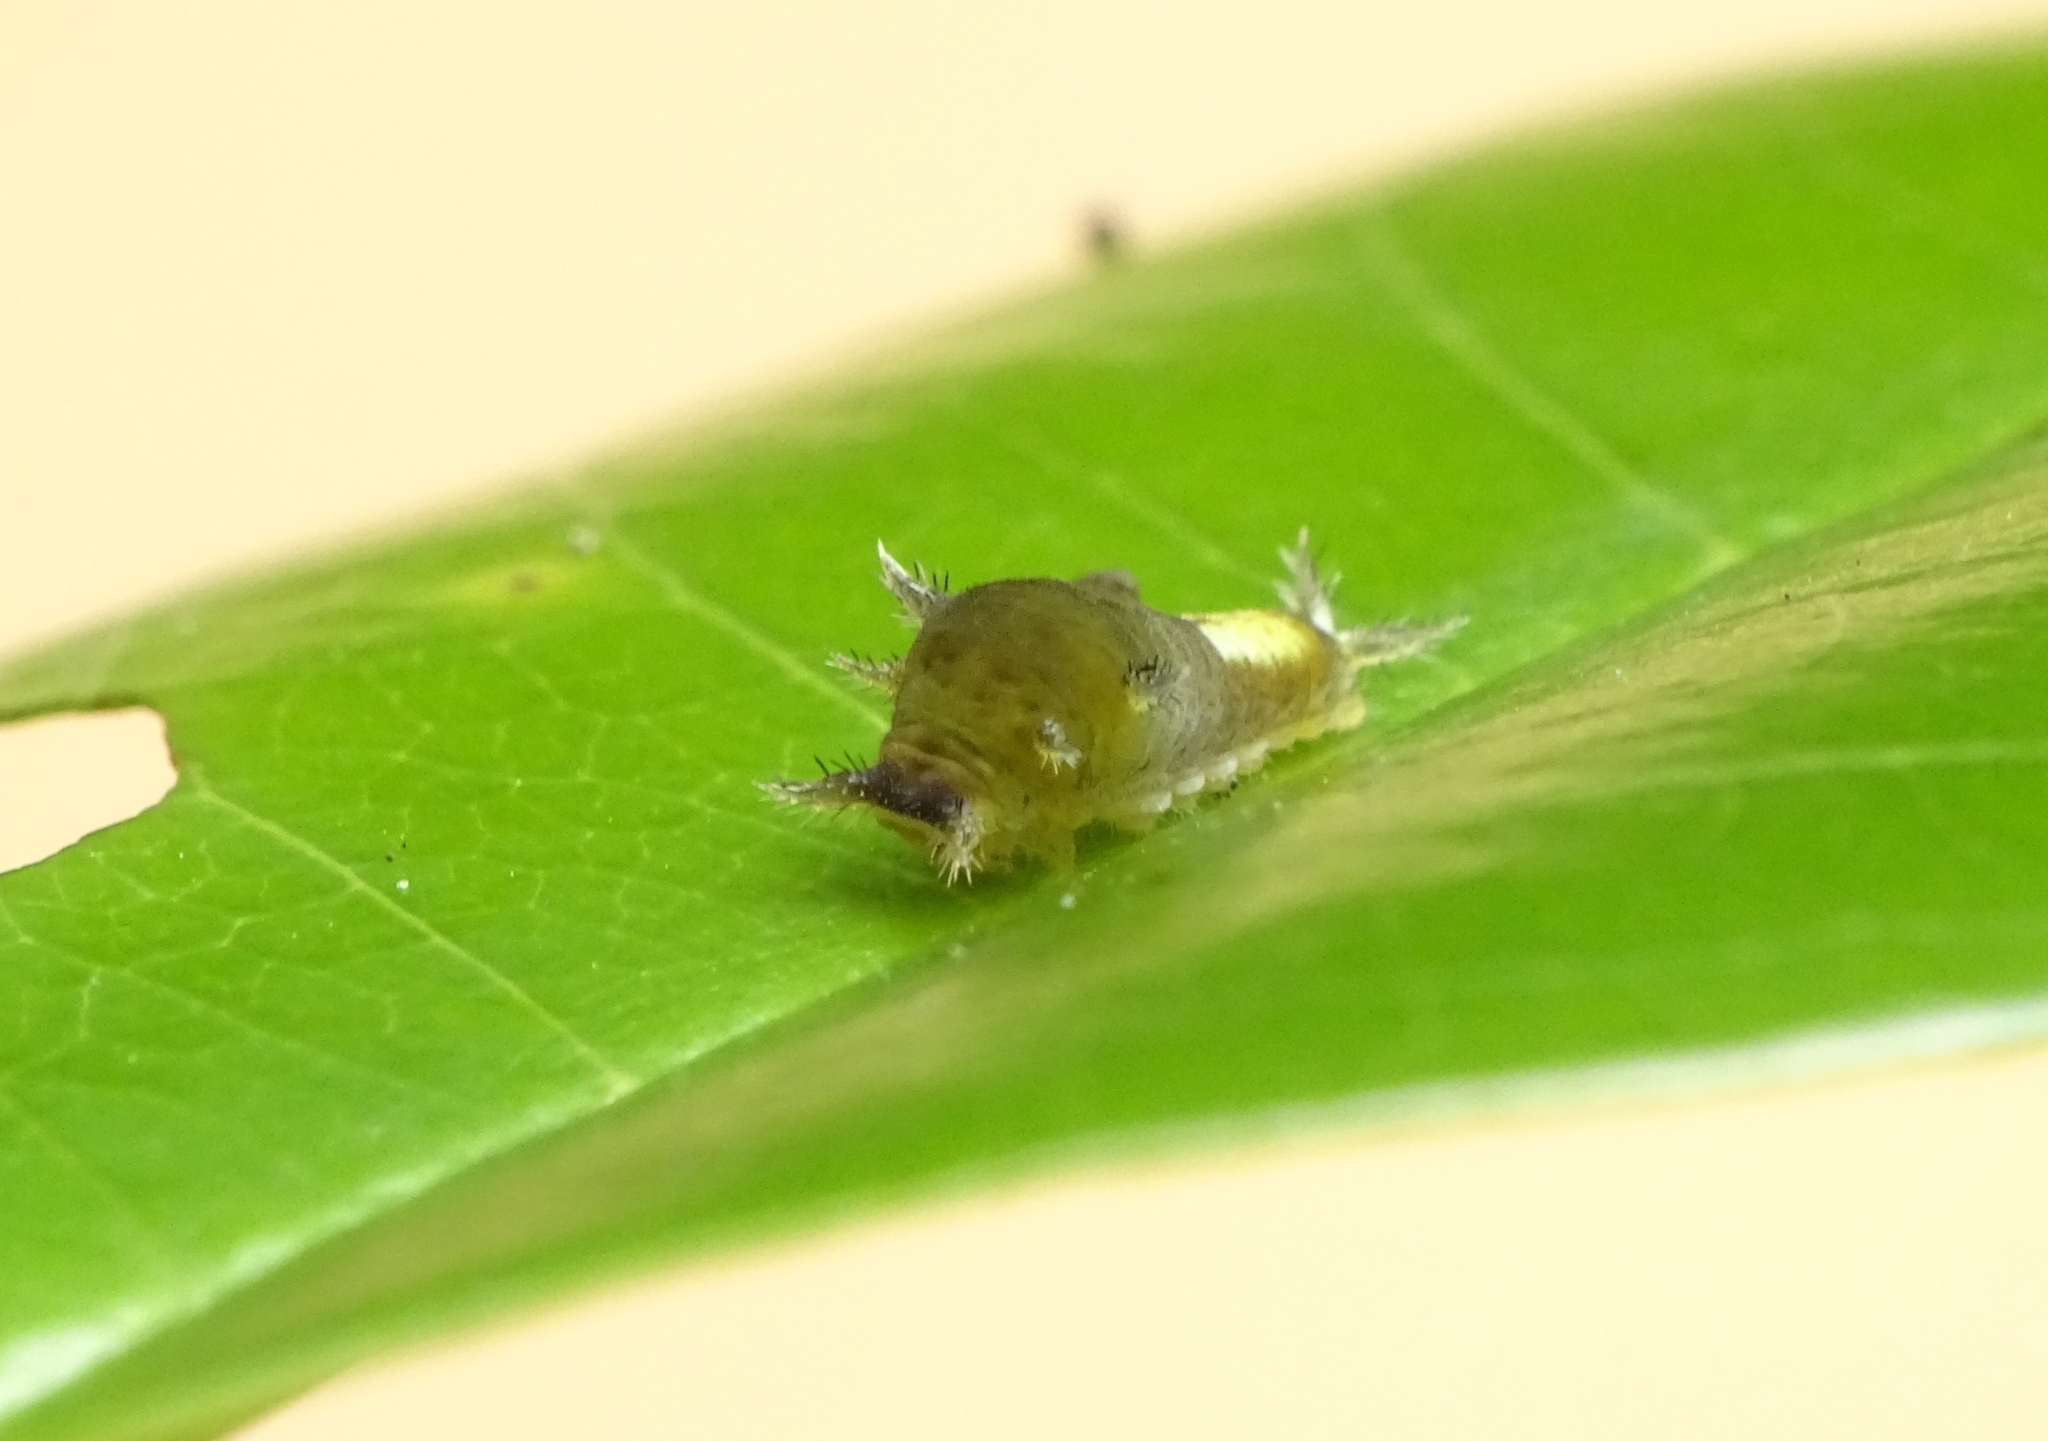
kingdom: Animalia
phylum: Arthropoda
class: Insecta
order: Lepidoptera
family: Papilionidae
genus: Graphium
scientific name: Graphium agamemnon
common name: Tailed jay
